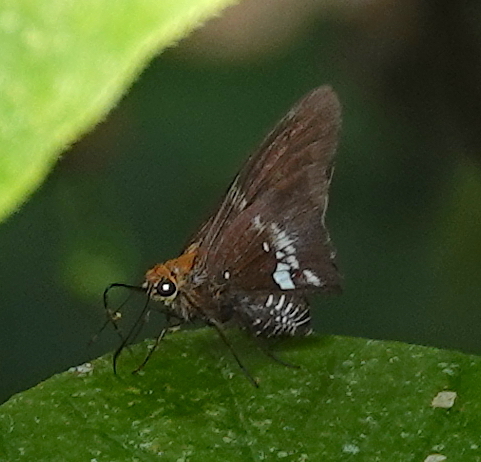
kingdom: Animalia
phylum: Arthropoda
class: Insecta
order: Lepidoptera
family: Hesperiidae
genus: Epargyreus
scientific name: Epargyreus exadeus
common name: Broken silverdrop
